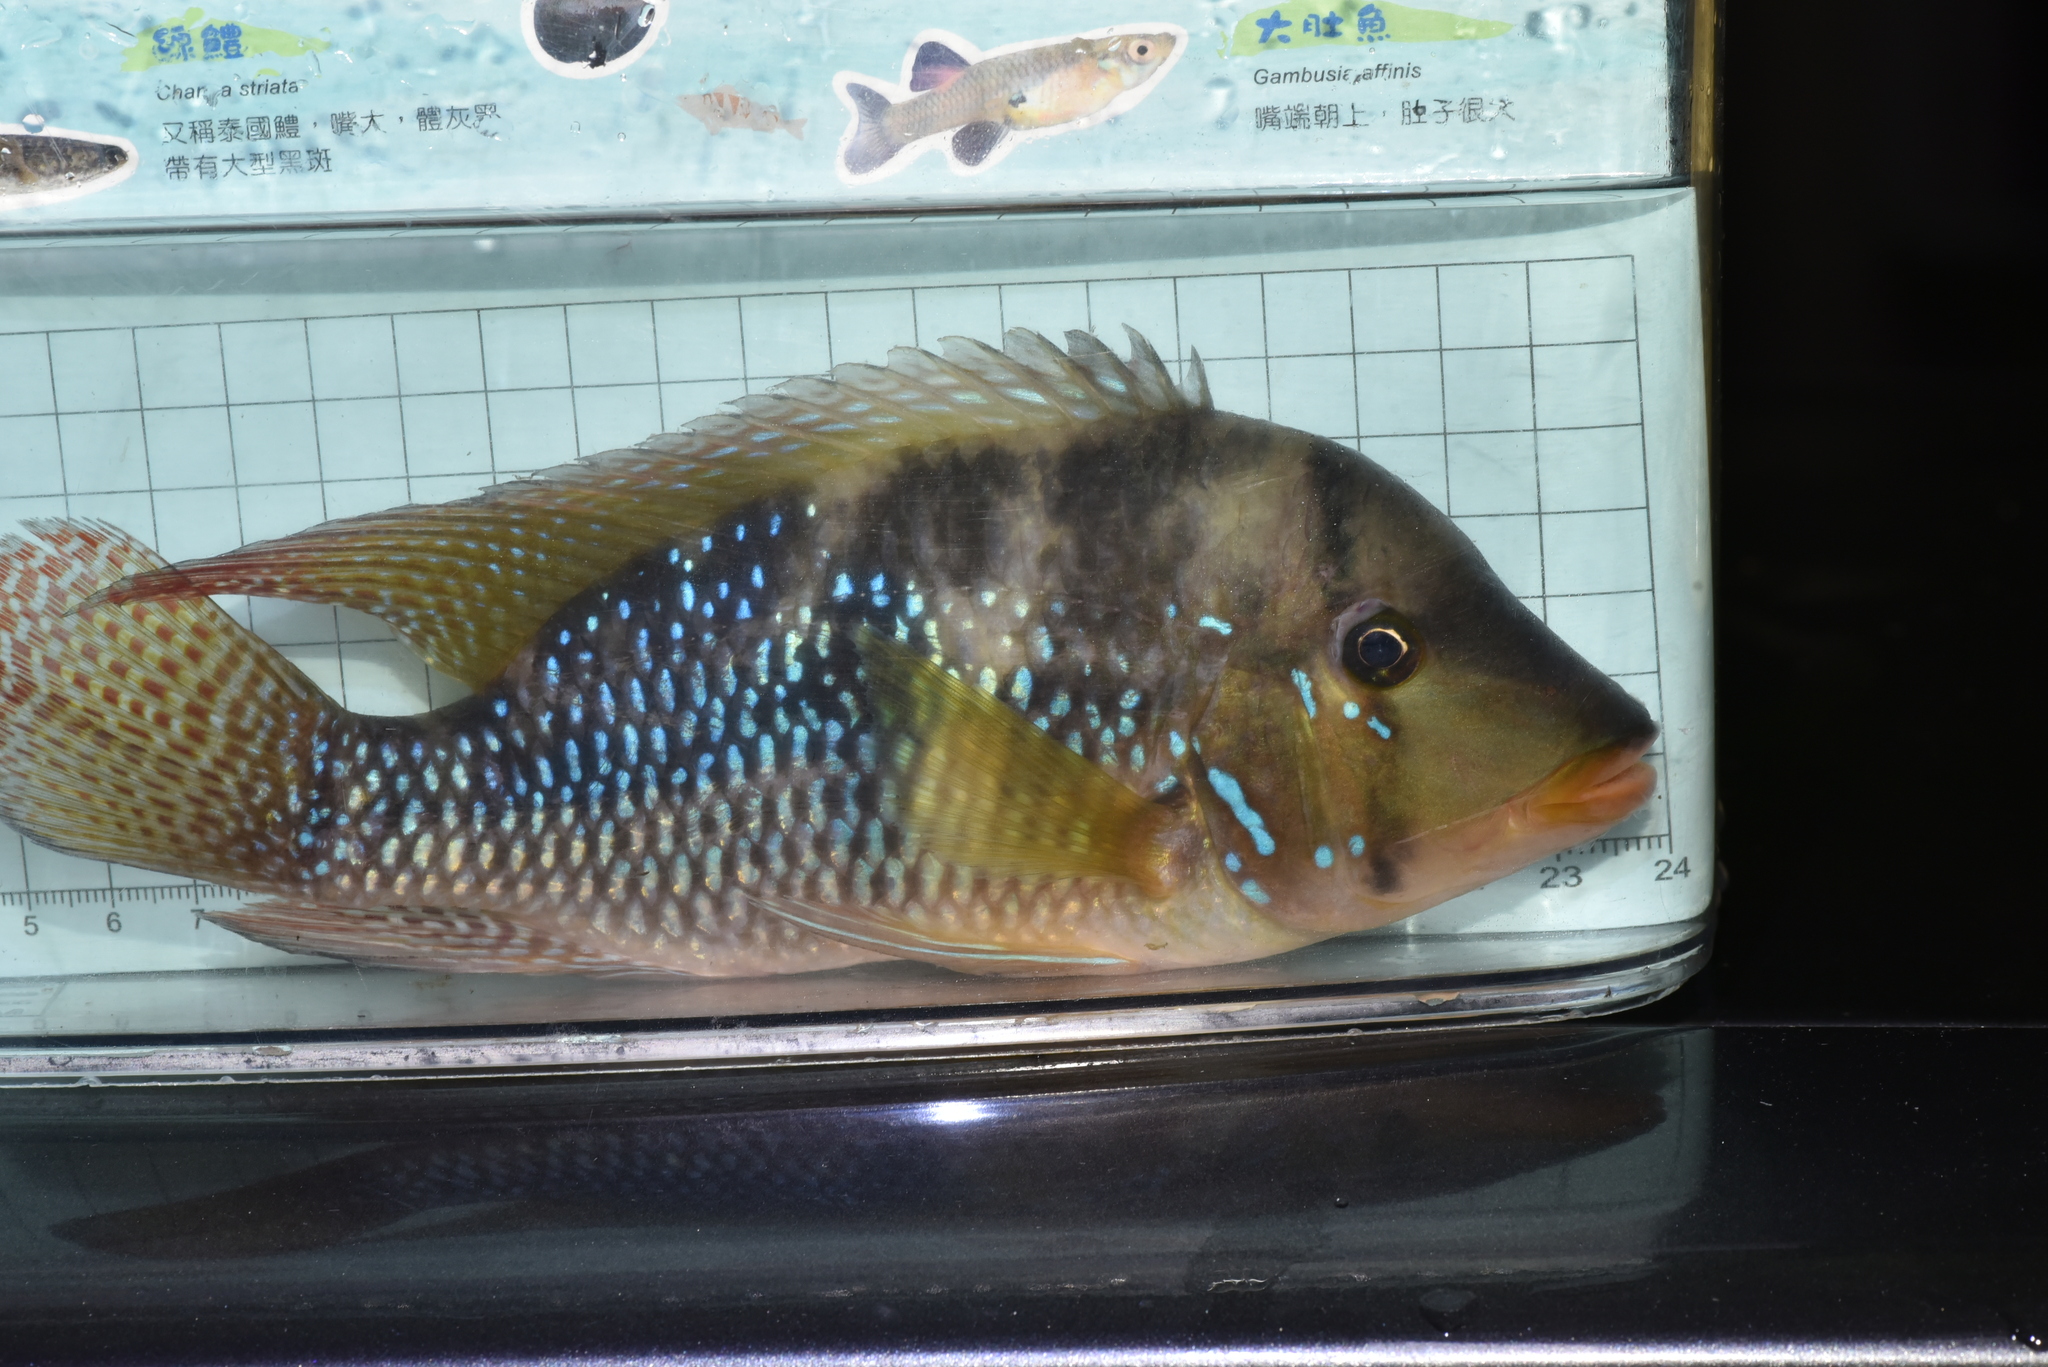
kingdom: Animalia
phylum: Chordata
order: Perciformes
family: Cichlidae
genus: Geophagus
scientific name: Geophagus brasiliensis
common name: Braziliensis
